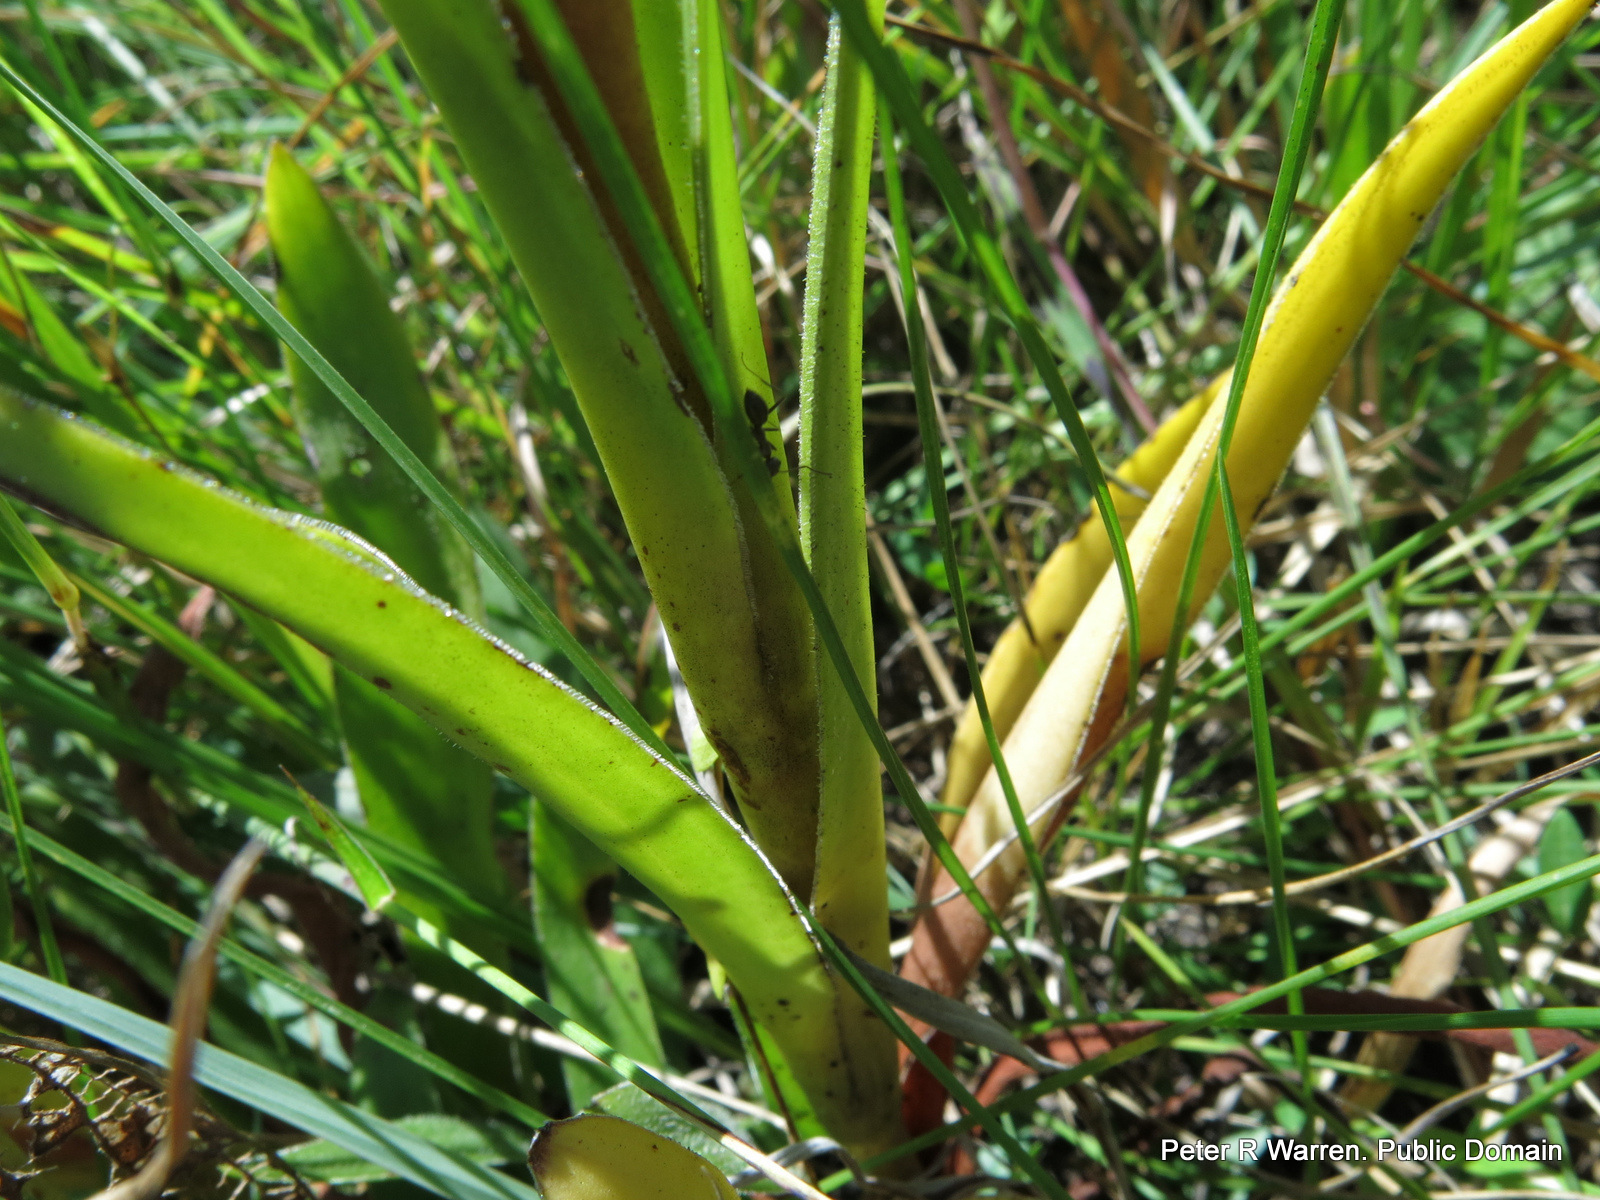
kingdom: Plantae
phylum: Tracheophyta
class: Magnoliopsida
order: Saxifragales
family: Crassulaceae
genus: Crassula
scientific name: Crassula vaginata
